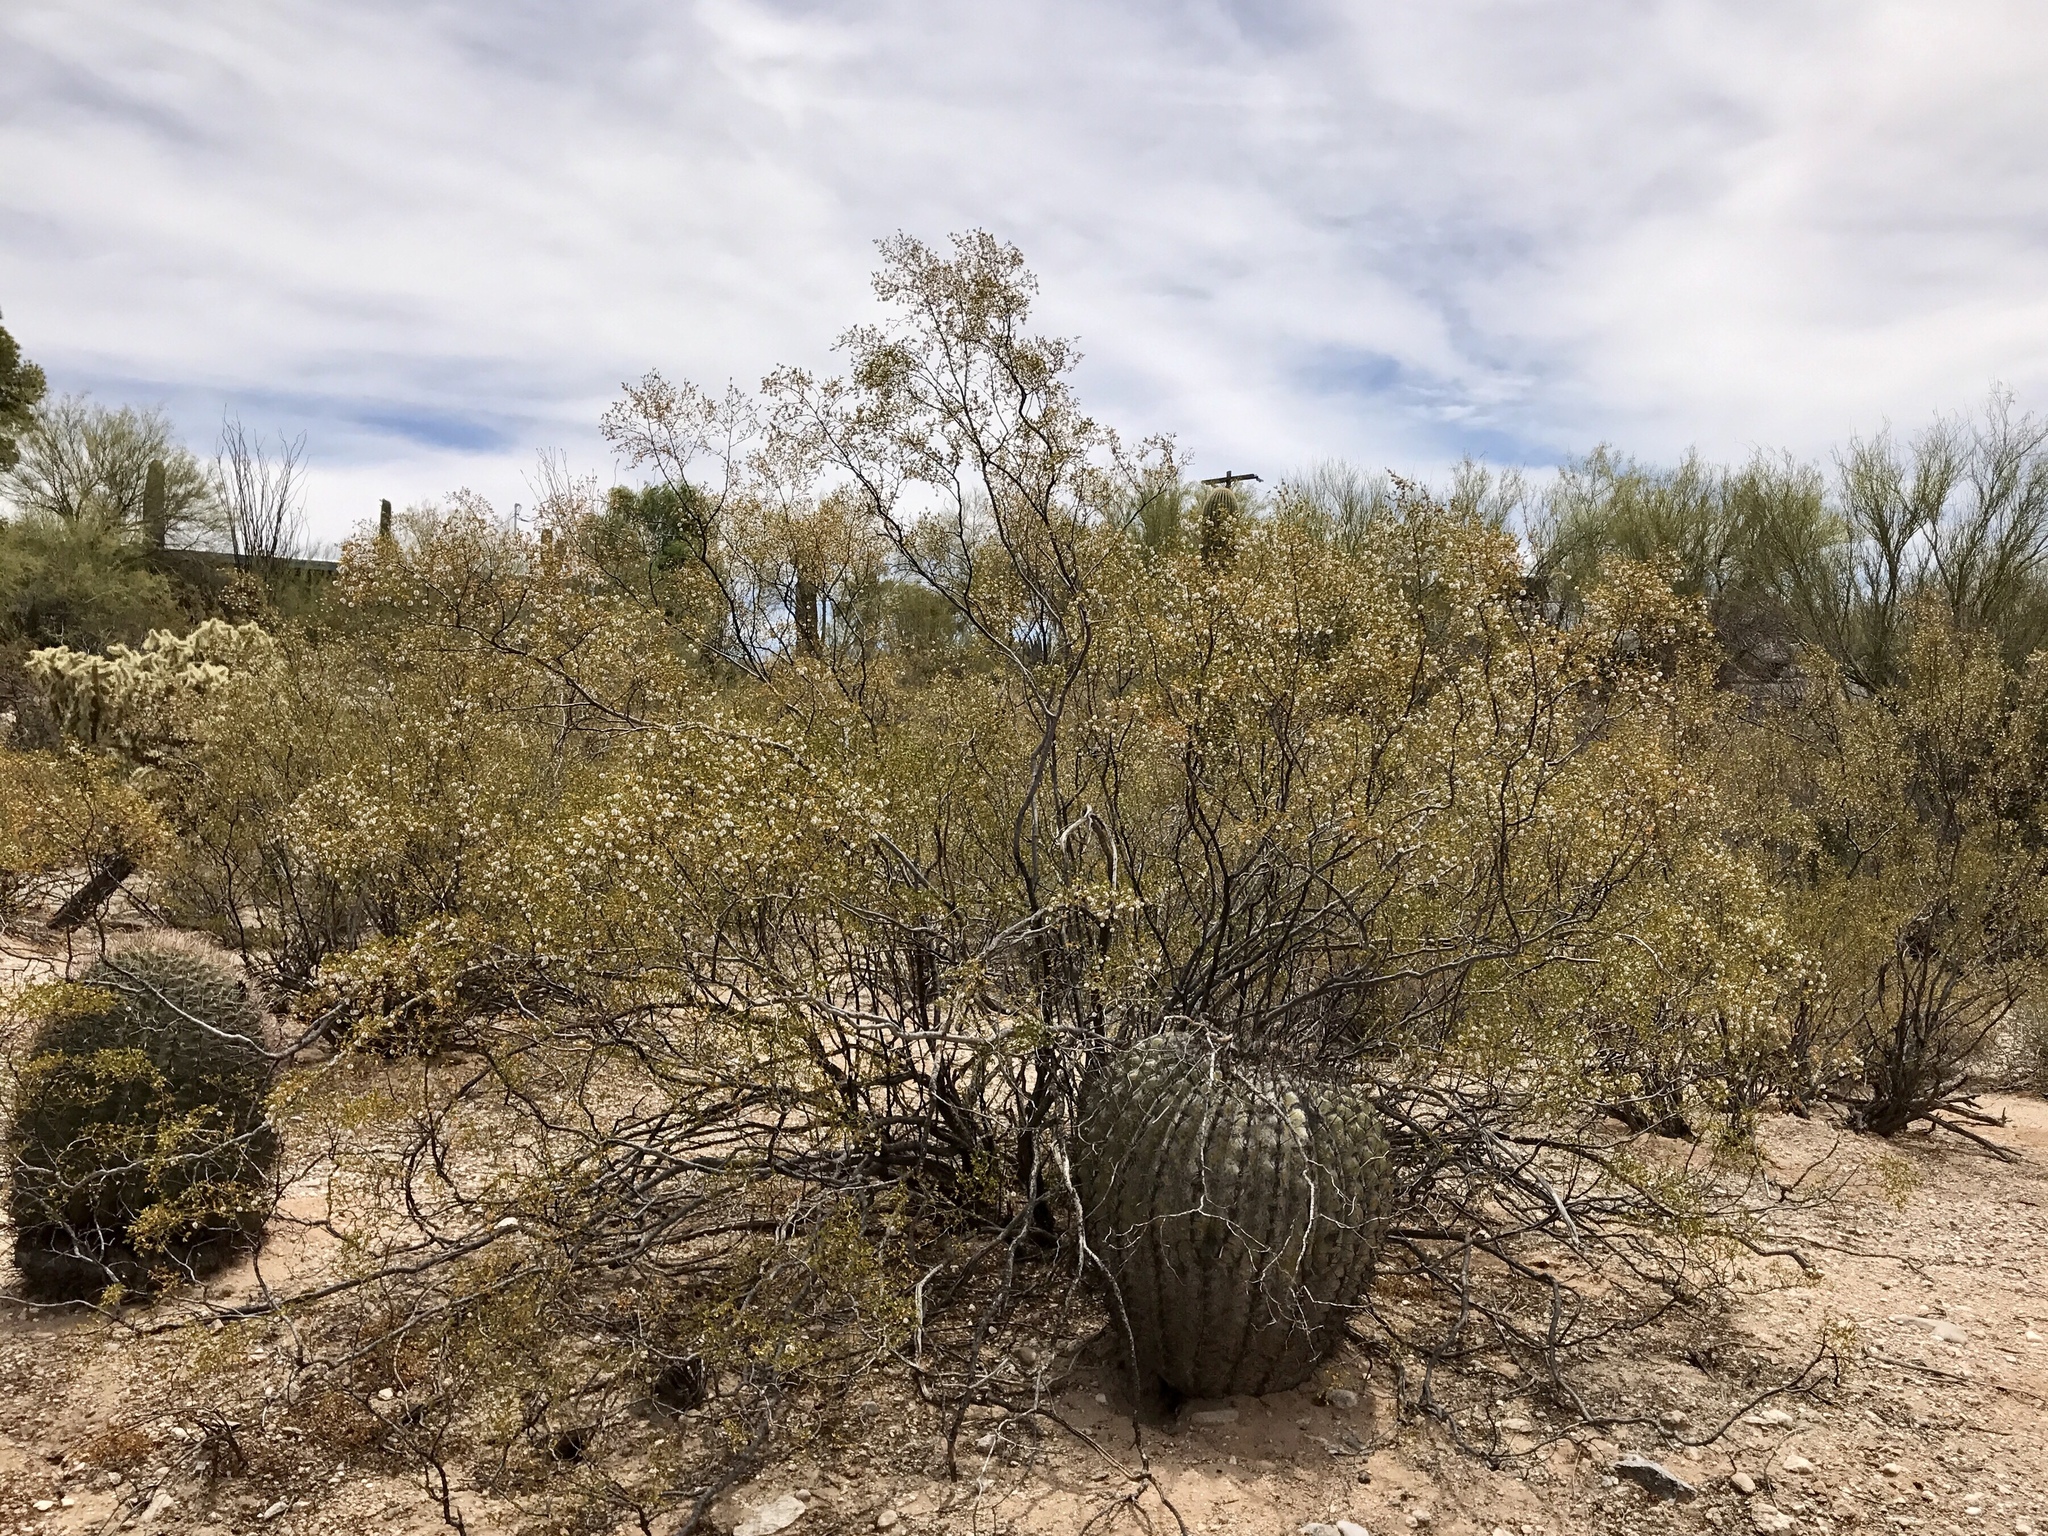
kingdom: Plantae
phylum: Tracheophyta
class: Magnoliopsida
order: Zygophyllales
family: Zygophyllaceae
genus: Larrea
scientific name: Larrea tridentata
